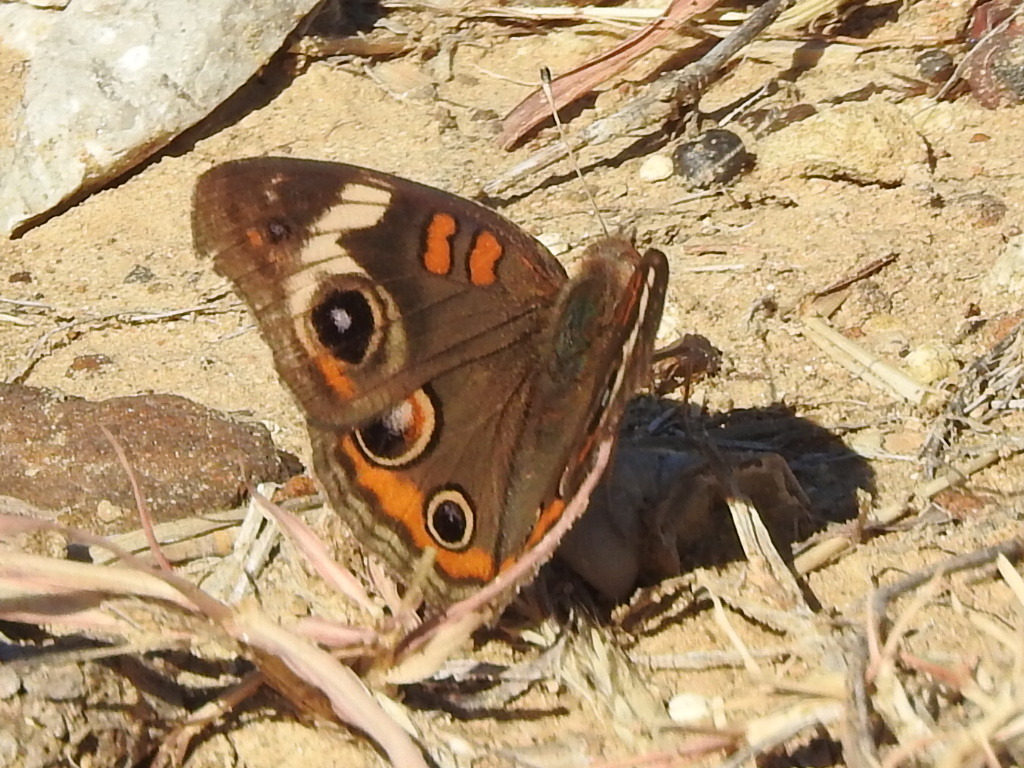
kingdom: Animalia
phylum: Arthropoda
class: Insecta
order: Lepidoptera
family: Nymphalidae
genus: Junonia
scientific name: Junonia coenia
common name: Common buckeye
